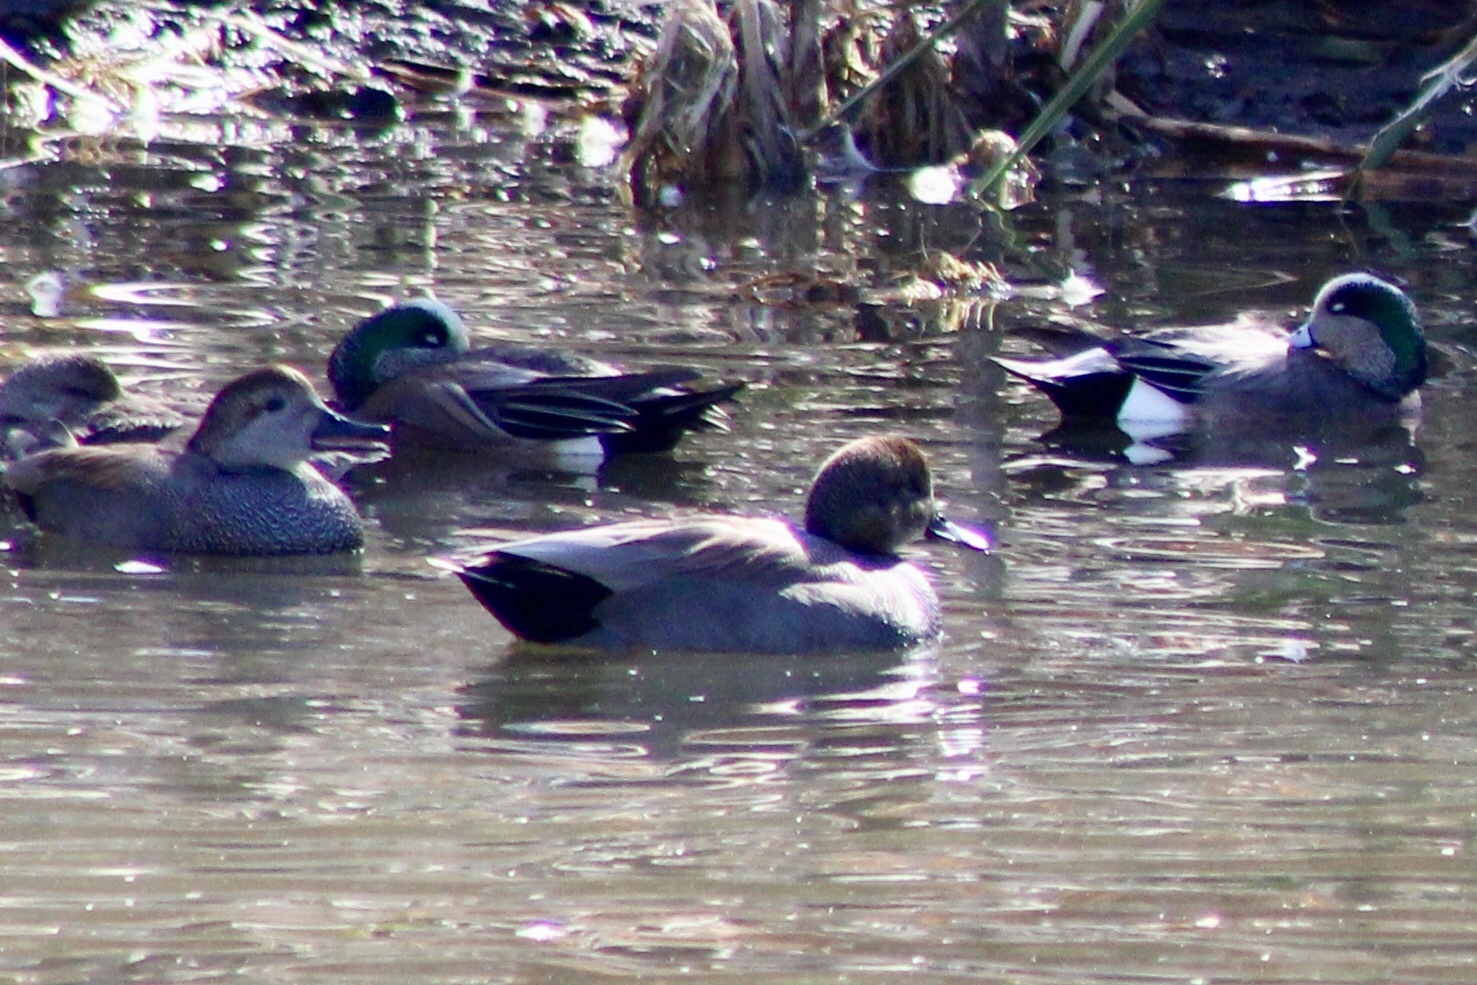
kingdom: Animalia
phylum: Chordata
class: Aves
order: Anseriformes
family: Anatidae
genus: Mareca
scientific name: Mareca strepera
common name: Gadwall
